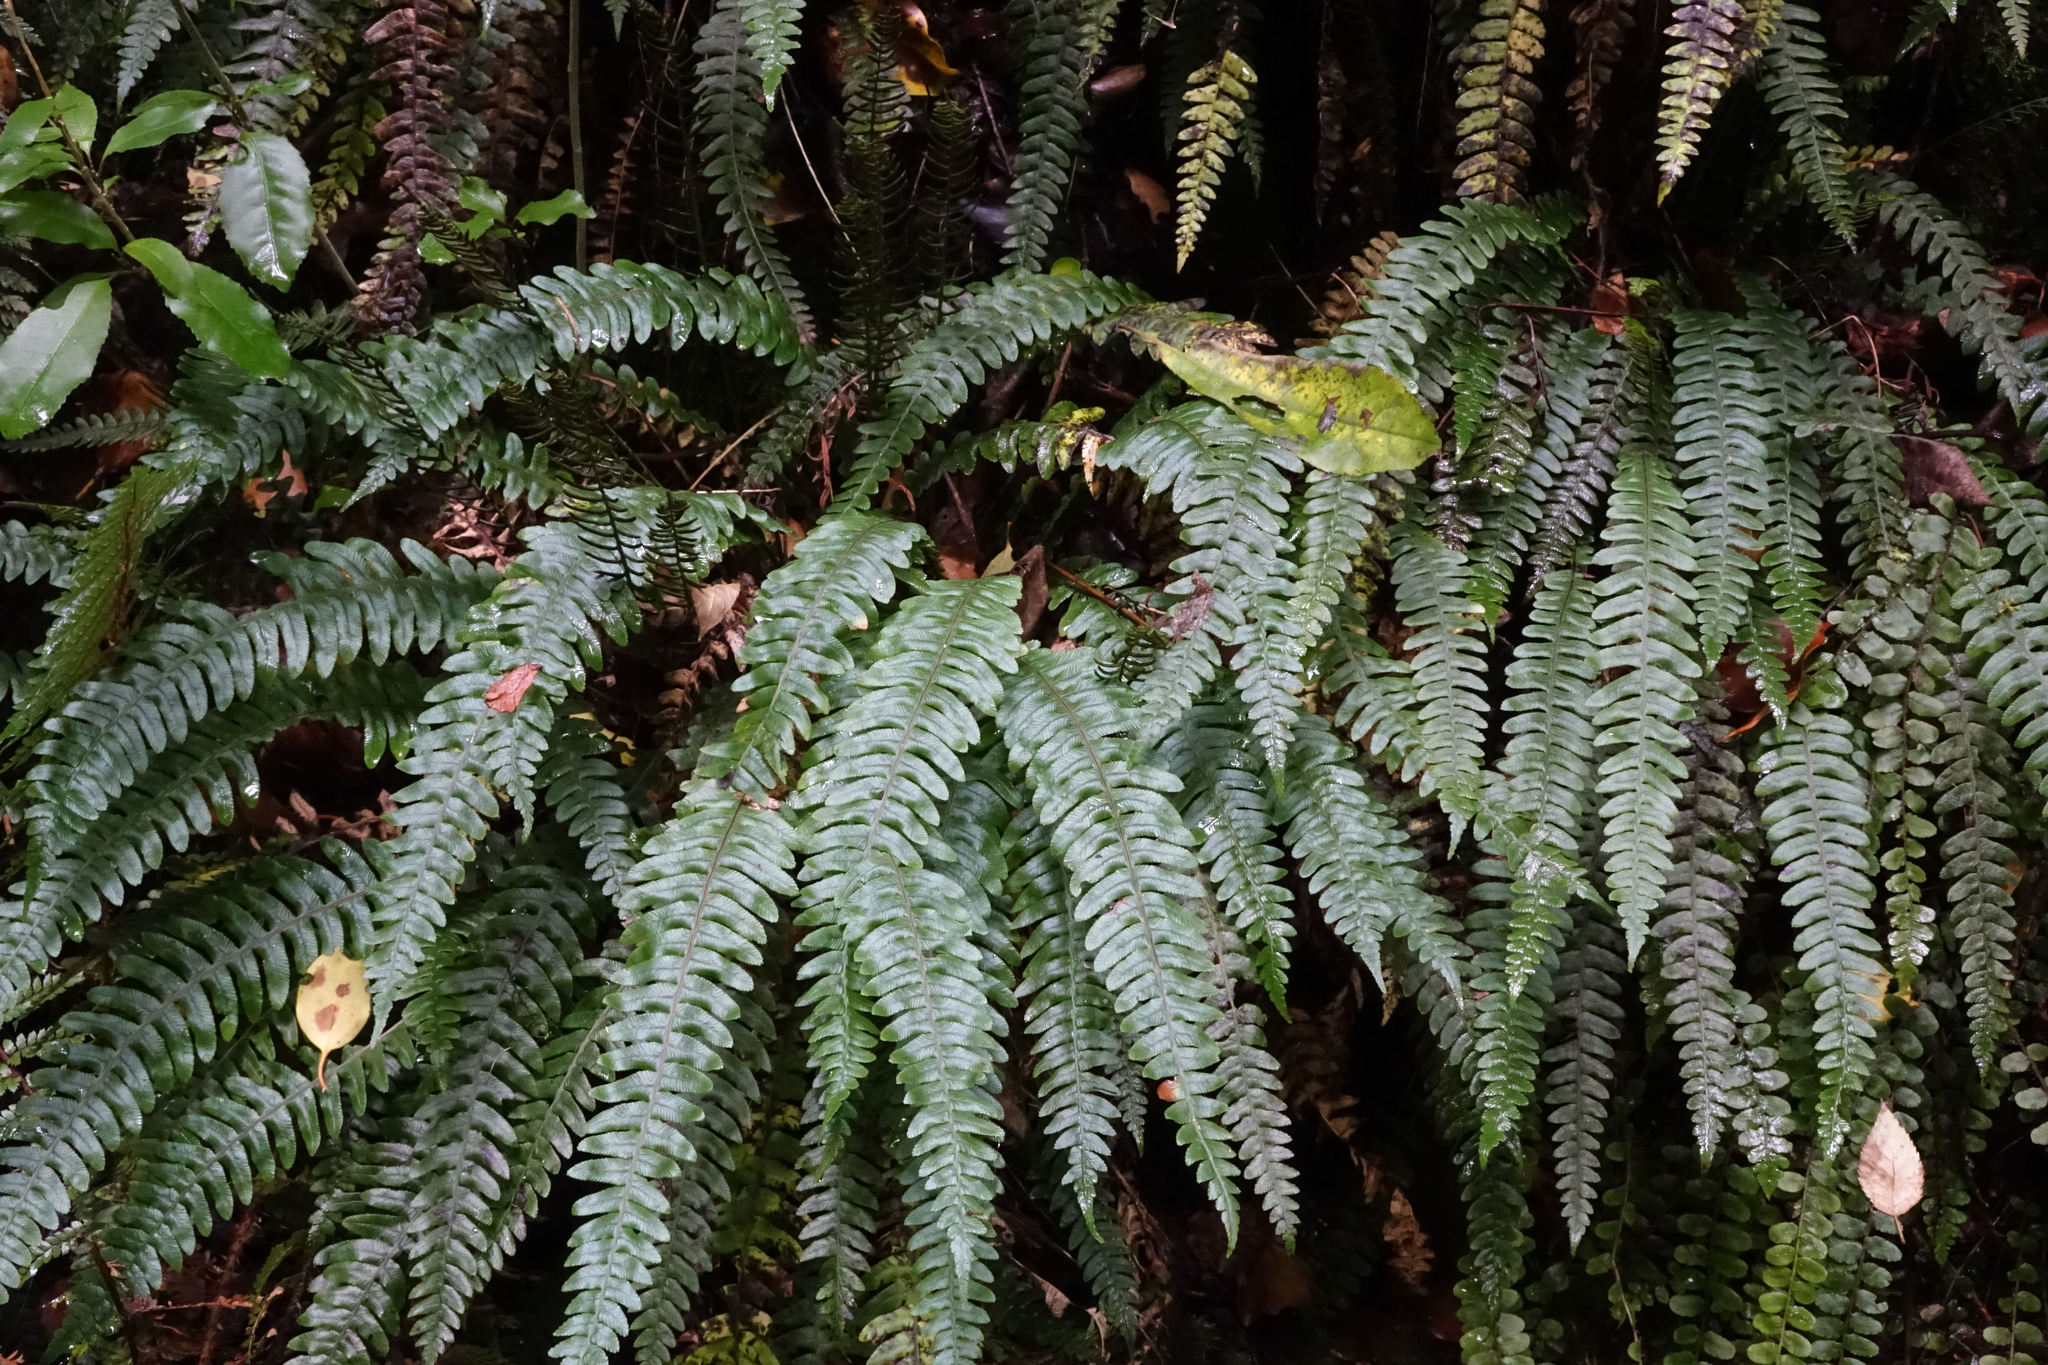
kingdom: Plantae
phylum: Tracheophyta
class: Polypodiopsida
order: Polypodiales
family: Blechnaceae
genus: Austroblechnum
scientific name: Austroblechnum lanceolatum
